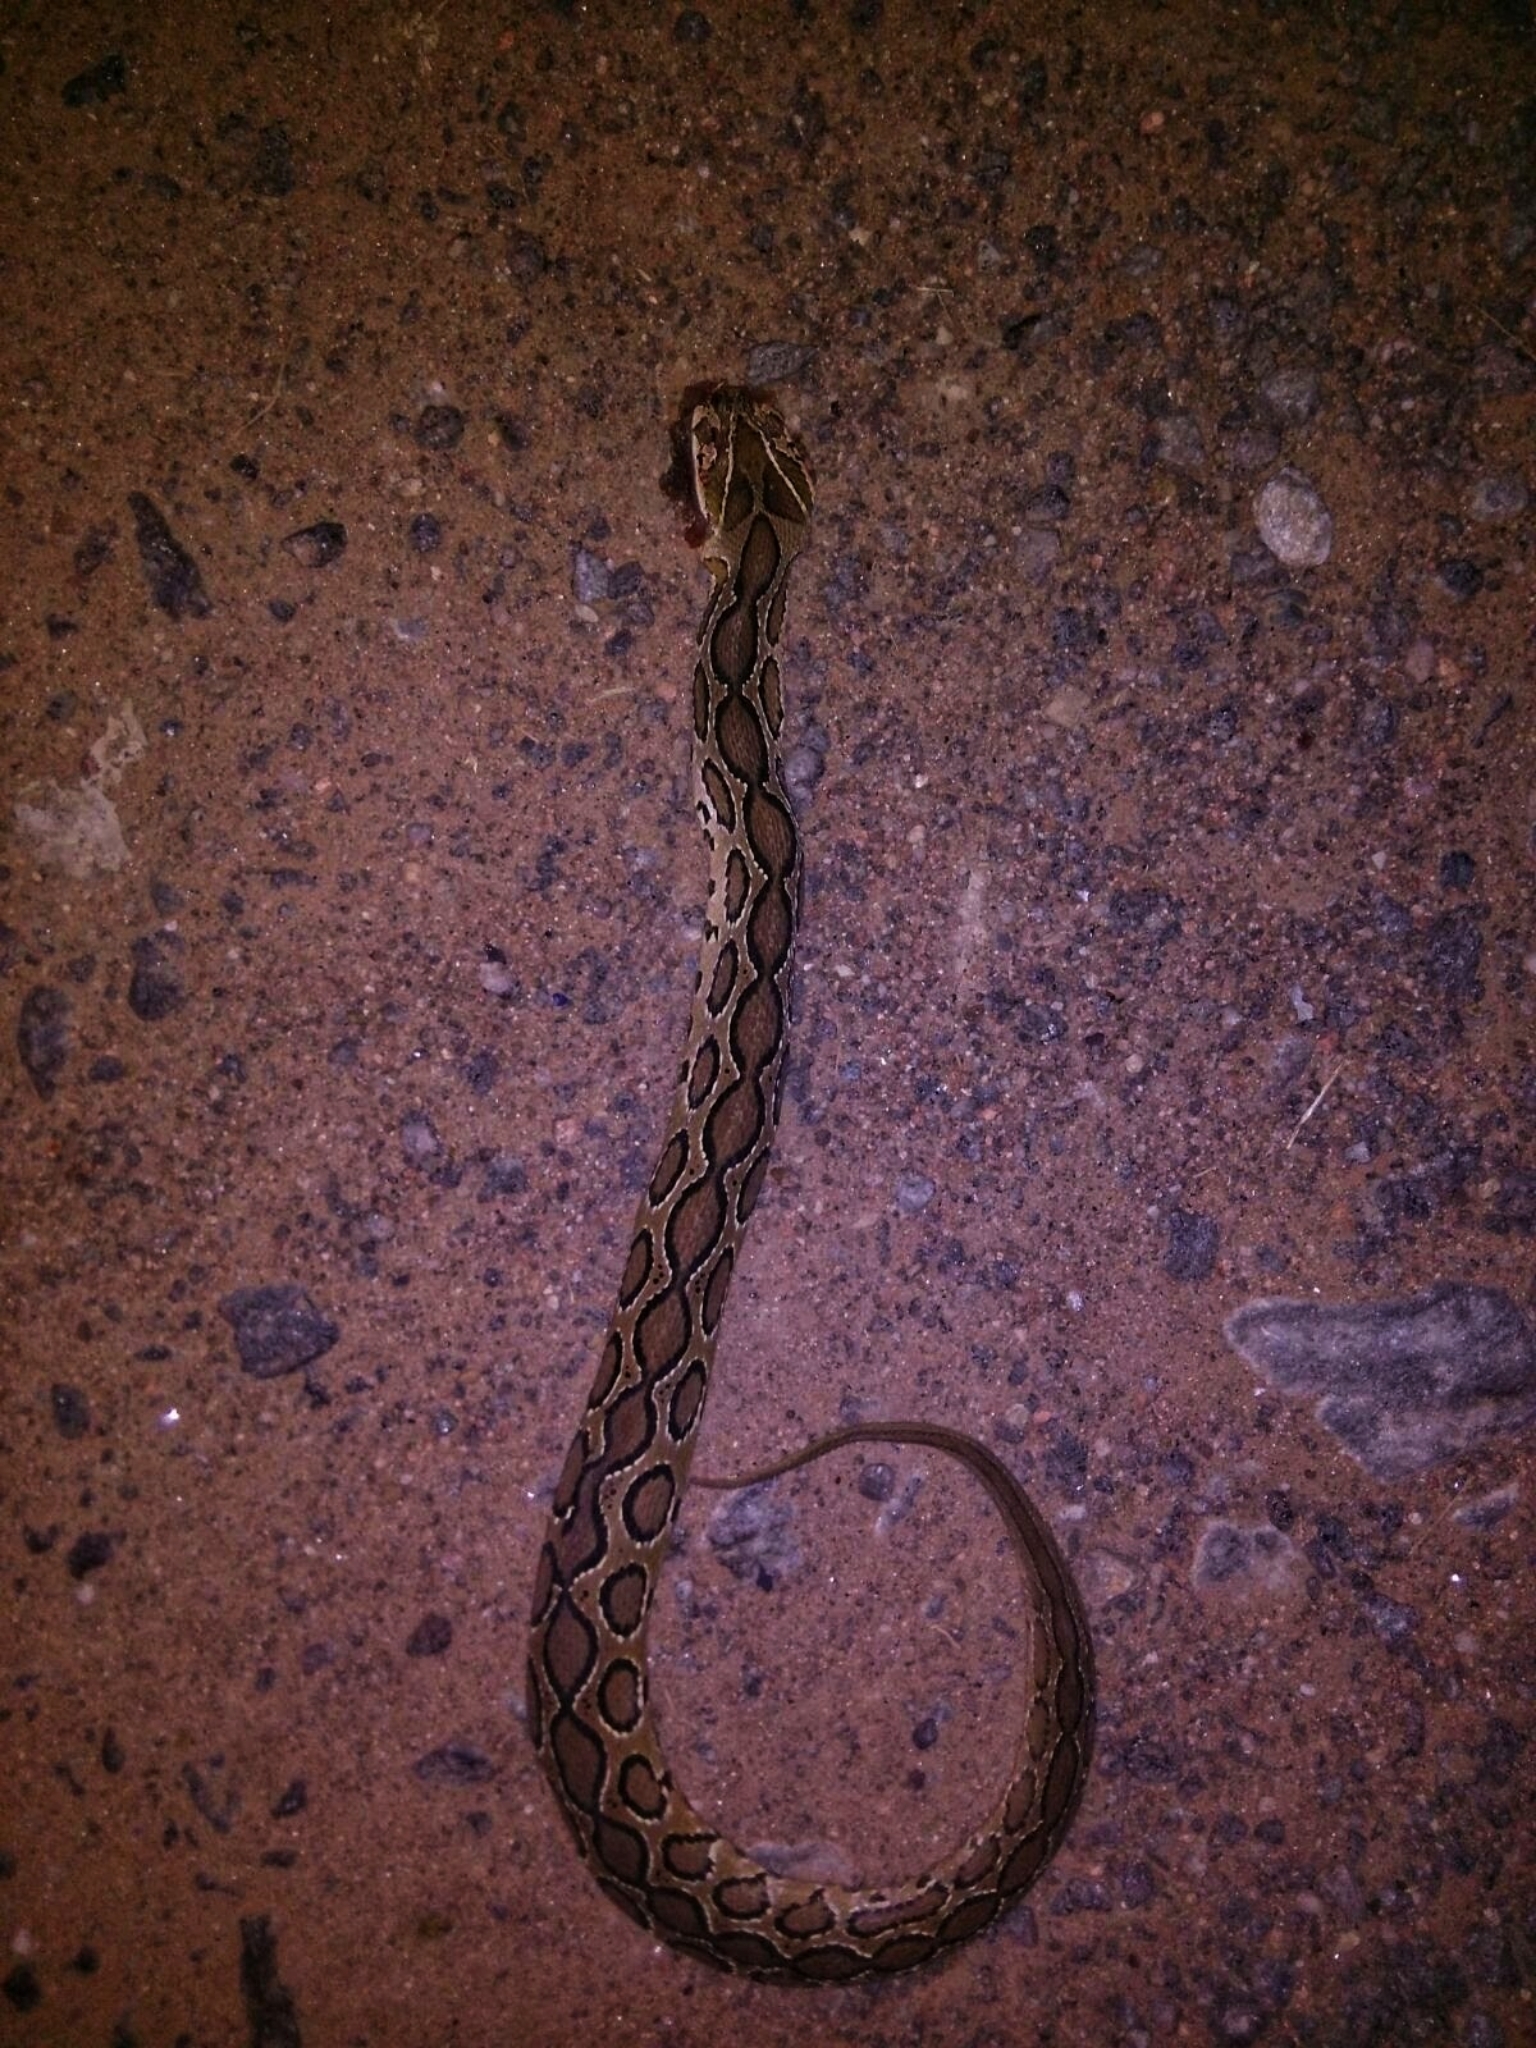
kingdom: Animalia
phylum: Chordata
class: Squamata
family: Viperidae
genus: Daboia
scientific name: Daboia russelii
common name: Western russel’s viper
